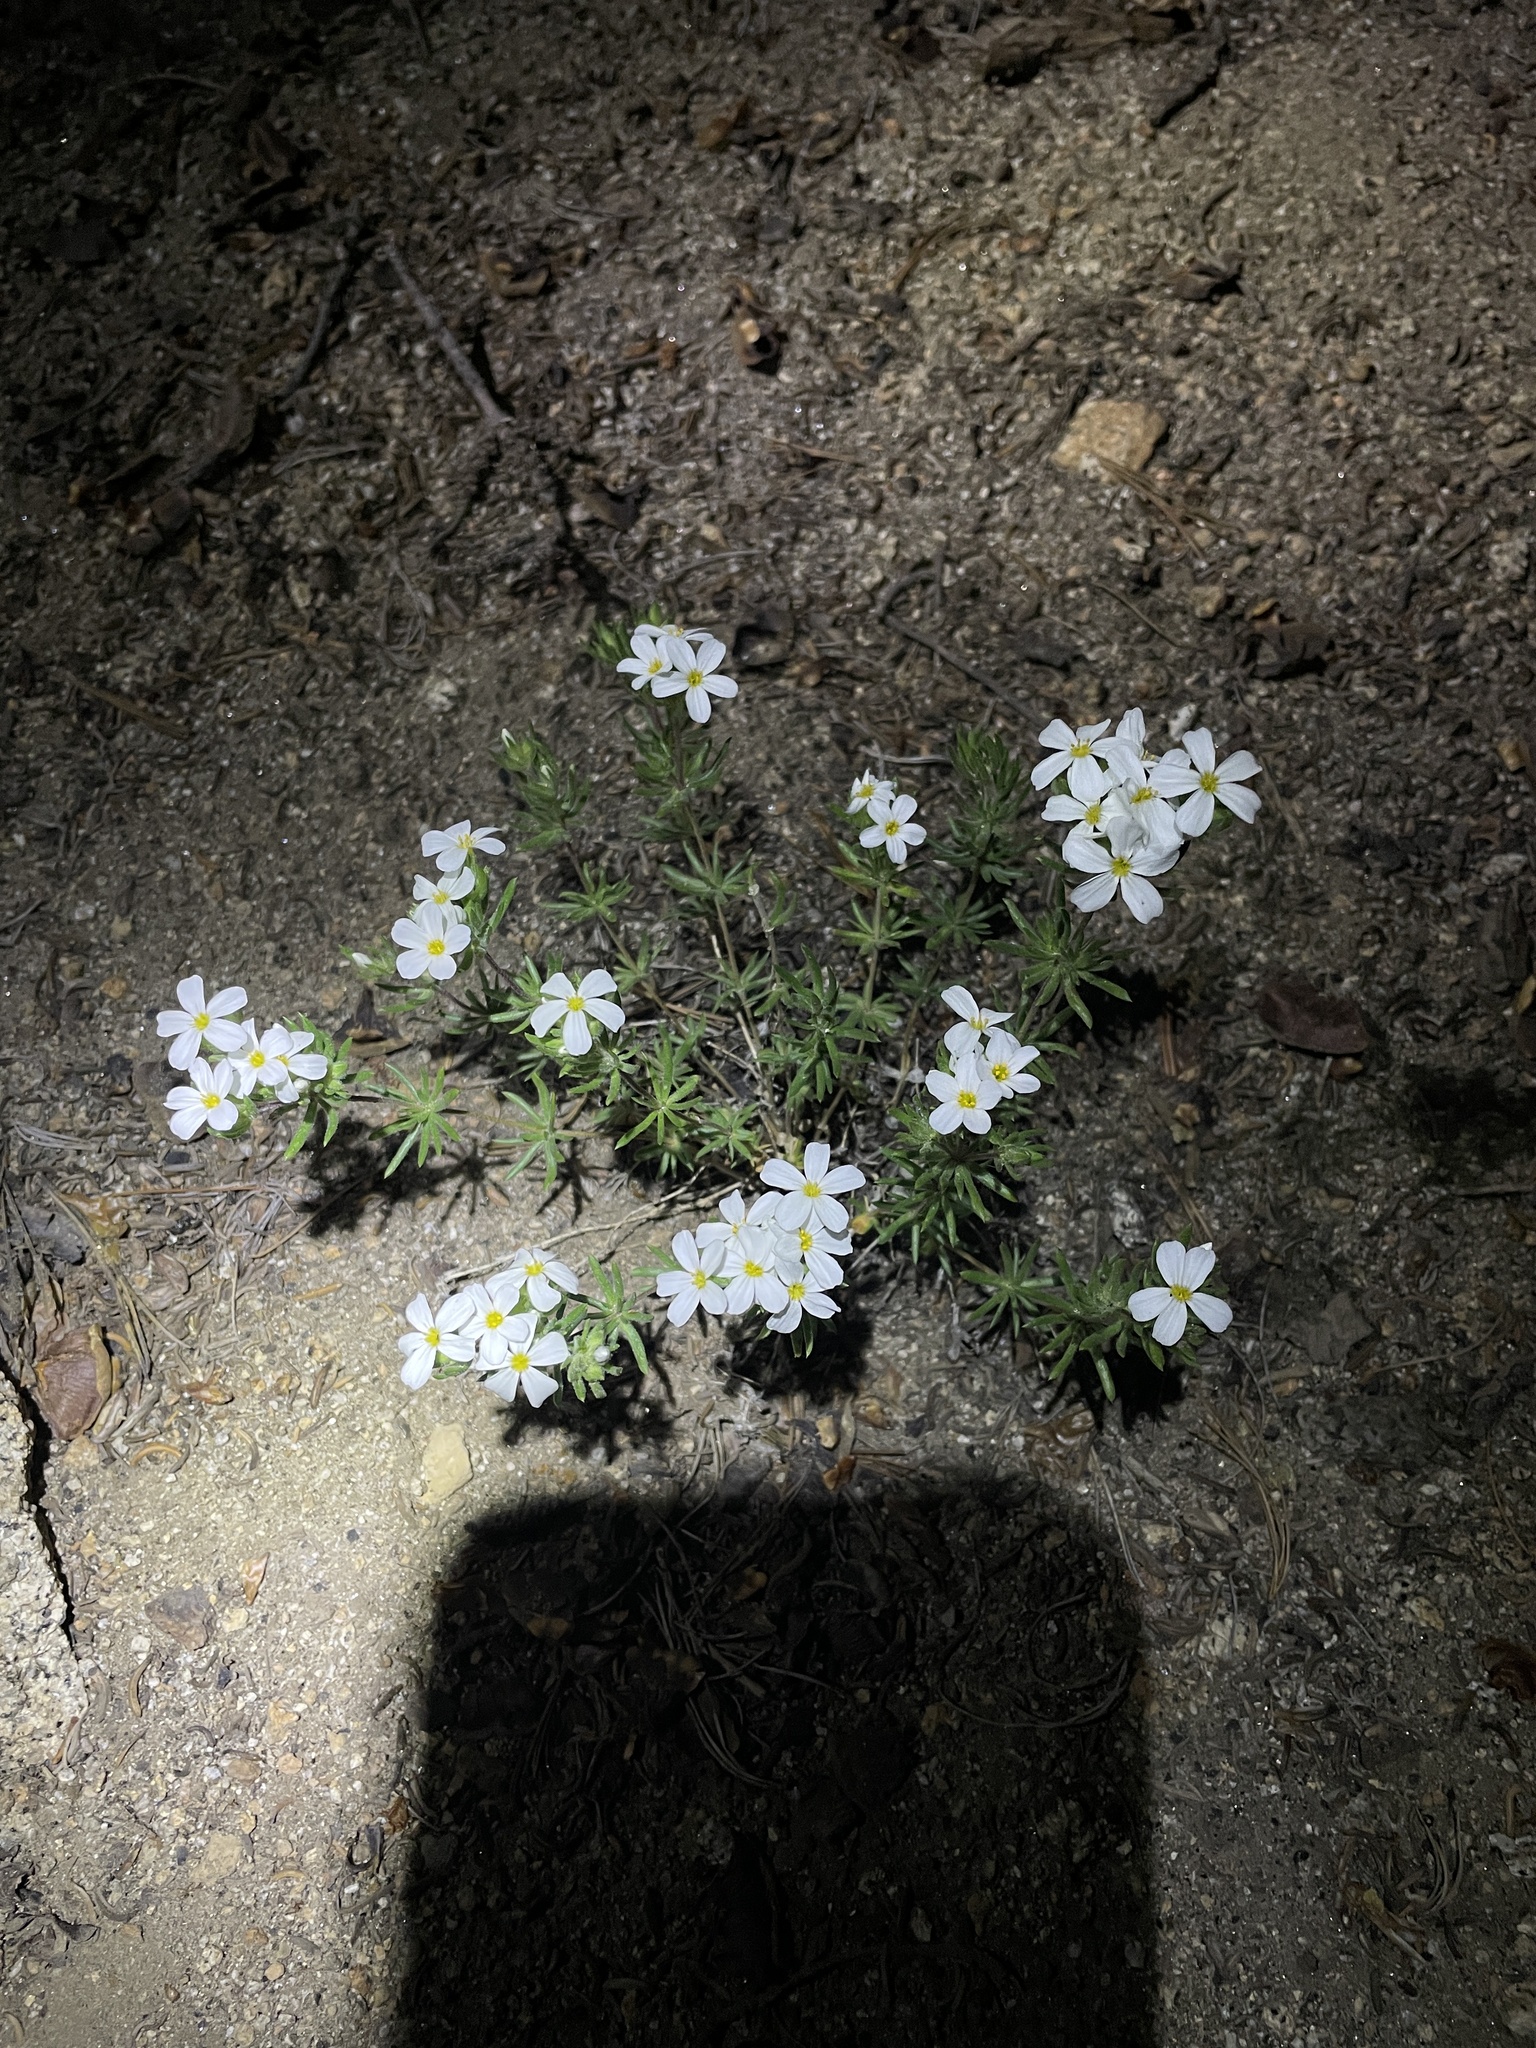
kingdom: Plantae
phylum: Tracheophyta
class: Magnoliopsida
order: Ericales
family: Polemoniaceae
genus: Leptosiphon
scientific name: Leptosiphon nuttallii
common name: Nuttall's linanthus
